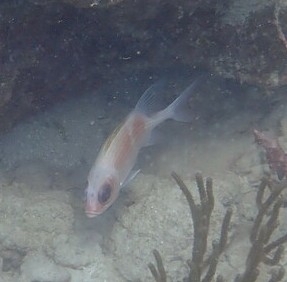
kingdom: Animalia
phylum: Chordata
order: Beryciformes
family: Holocentridae
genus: Holocentrus
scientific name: Holocentrus adscensionis
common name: Squirrelfish
